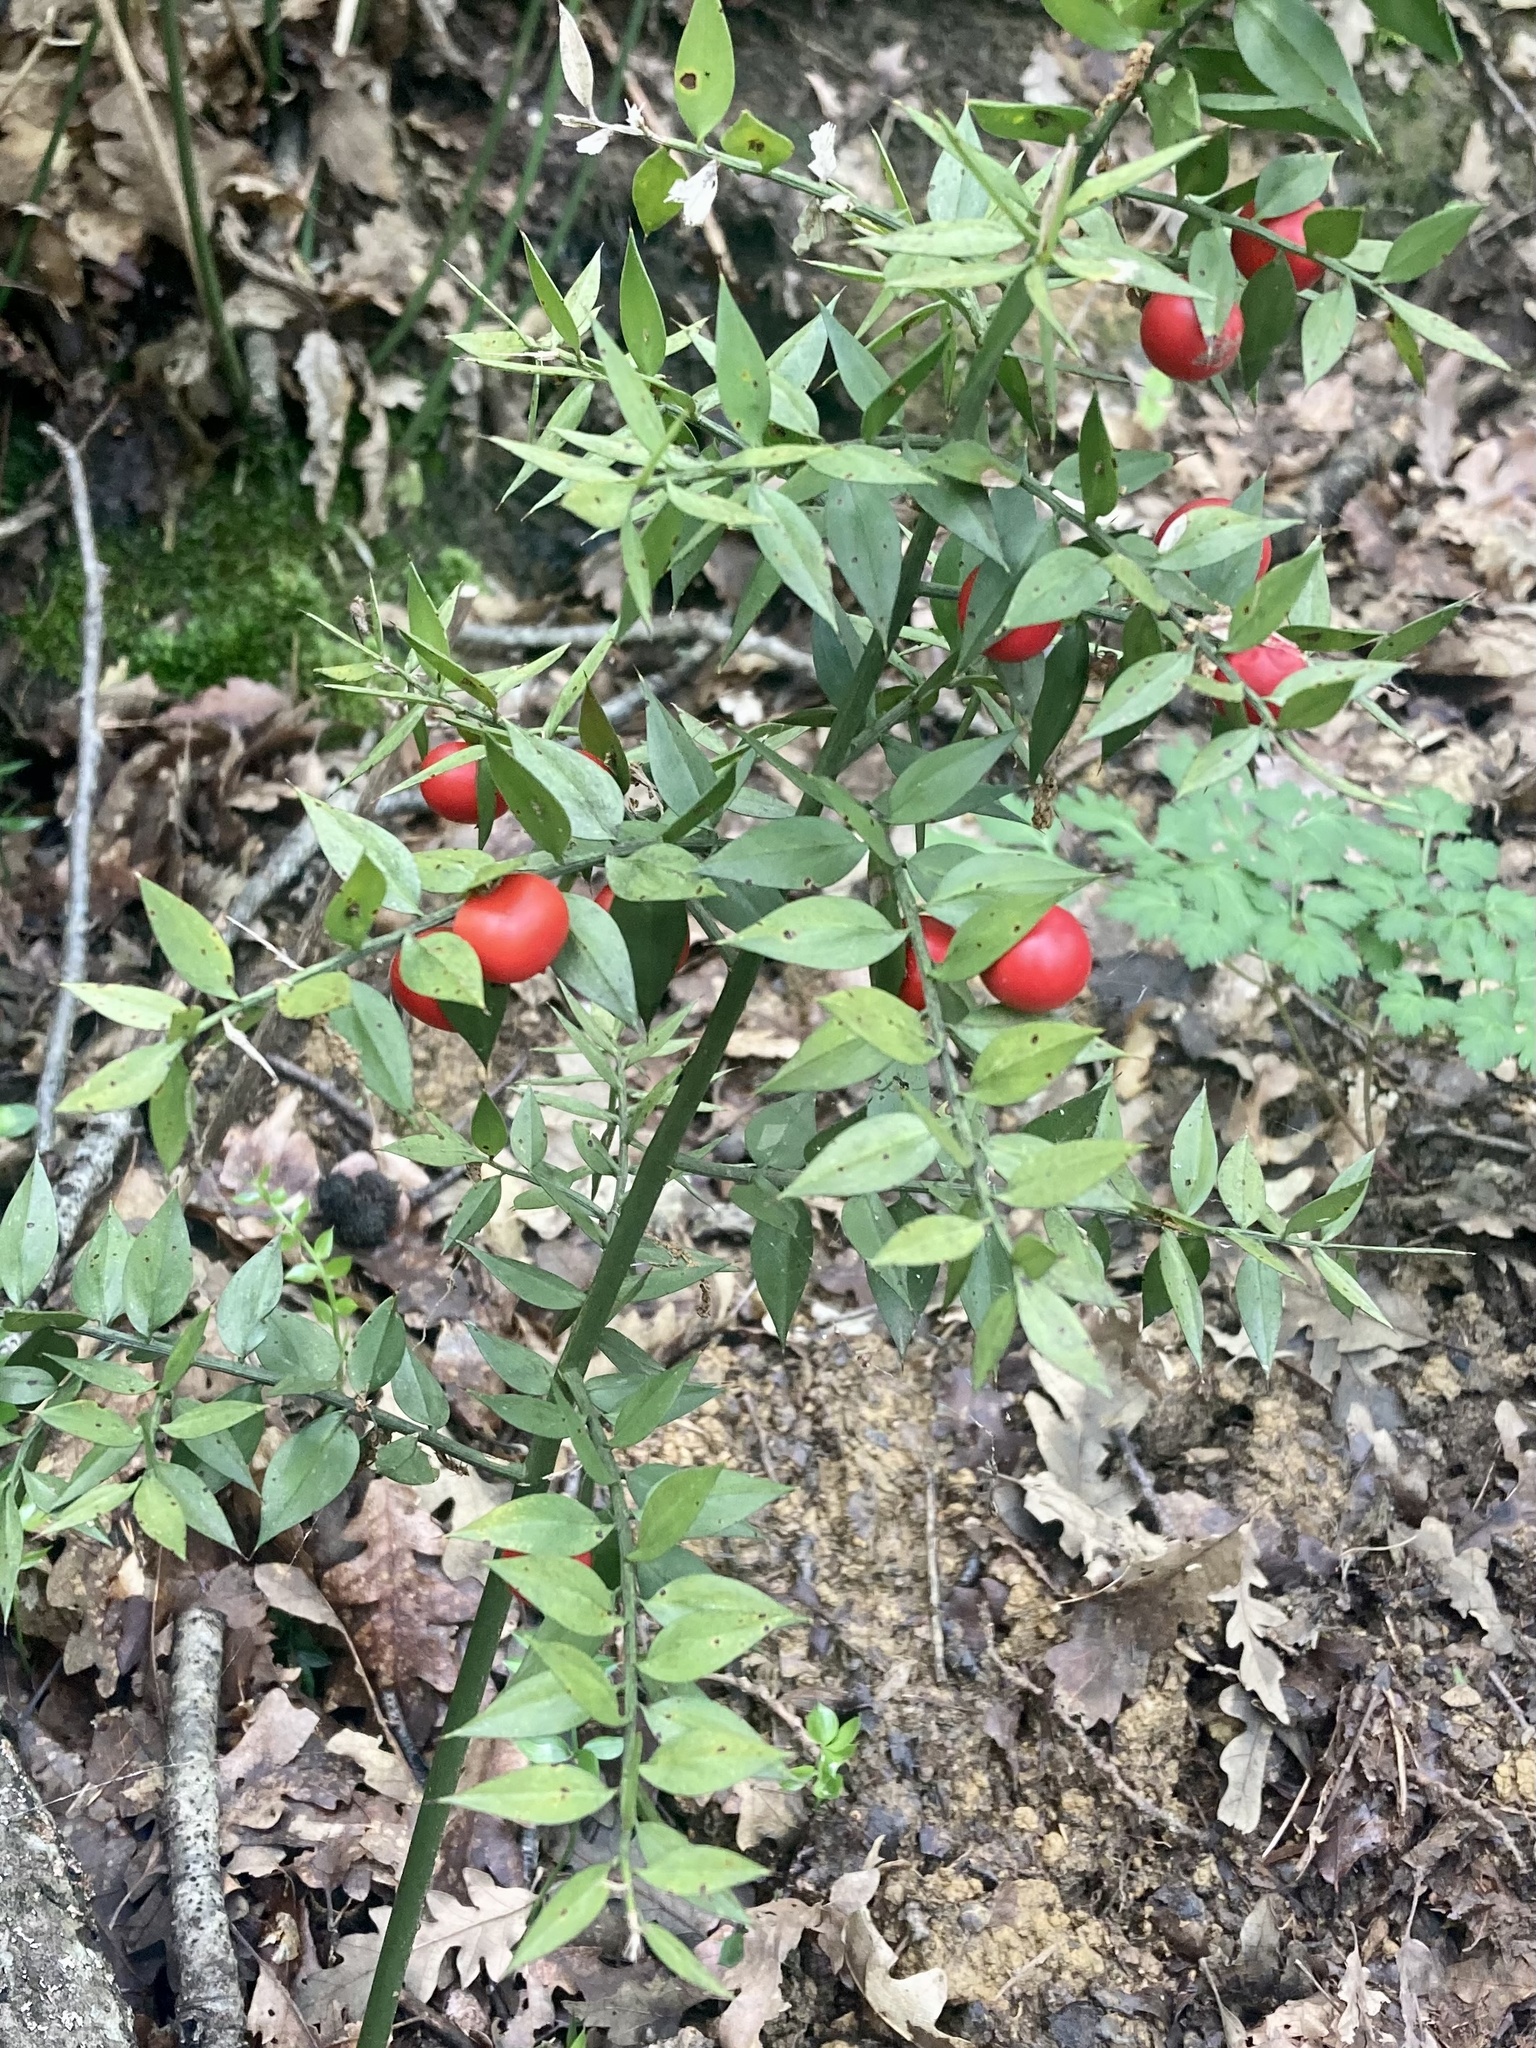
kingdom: Plantae
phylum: Tracheophyta
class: Liliopsida
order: Asparagales
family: Asparagaceae
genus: Ruscus
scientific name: Ruscus aculeatus
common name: Butcher's-broom
